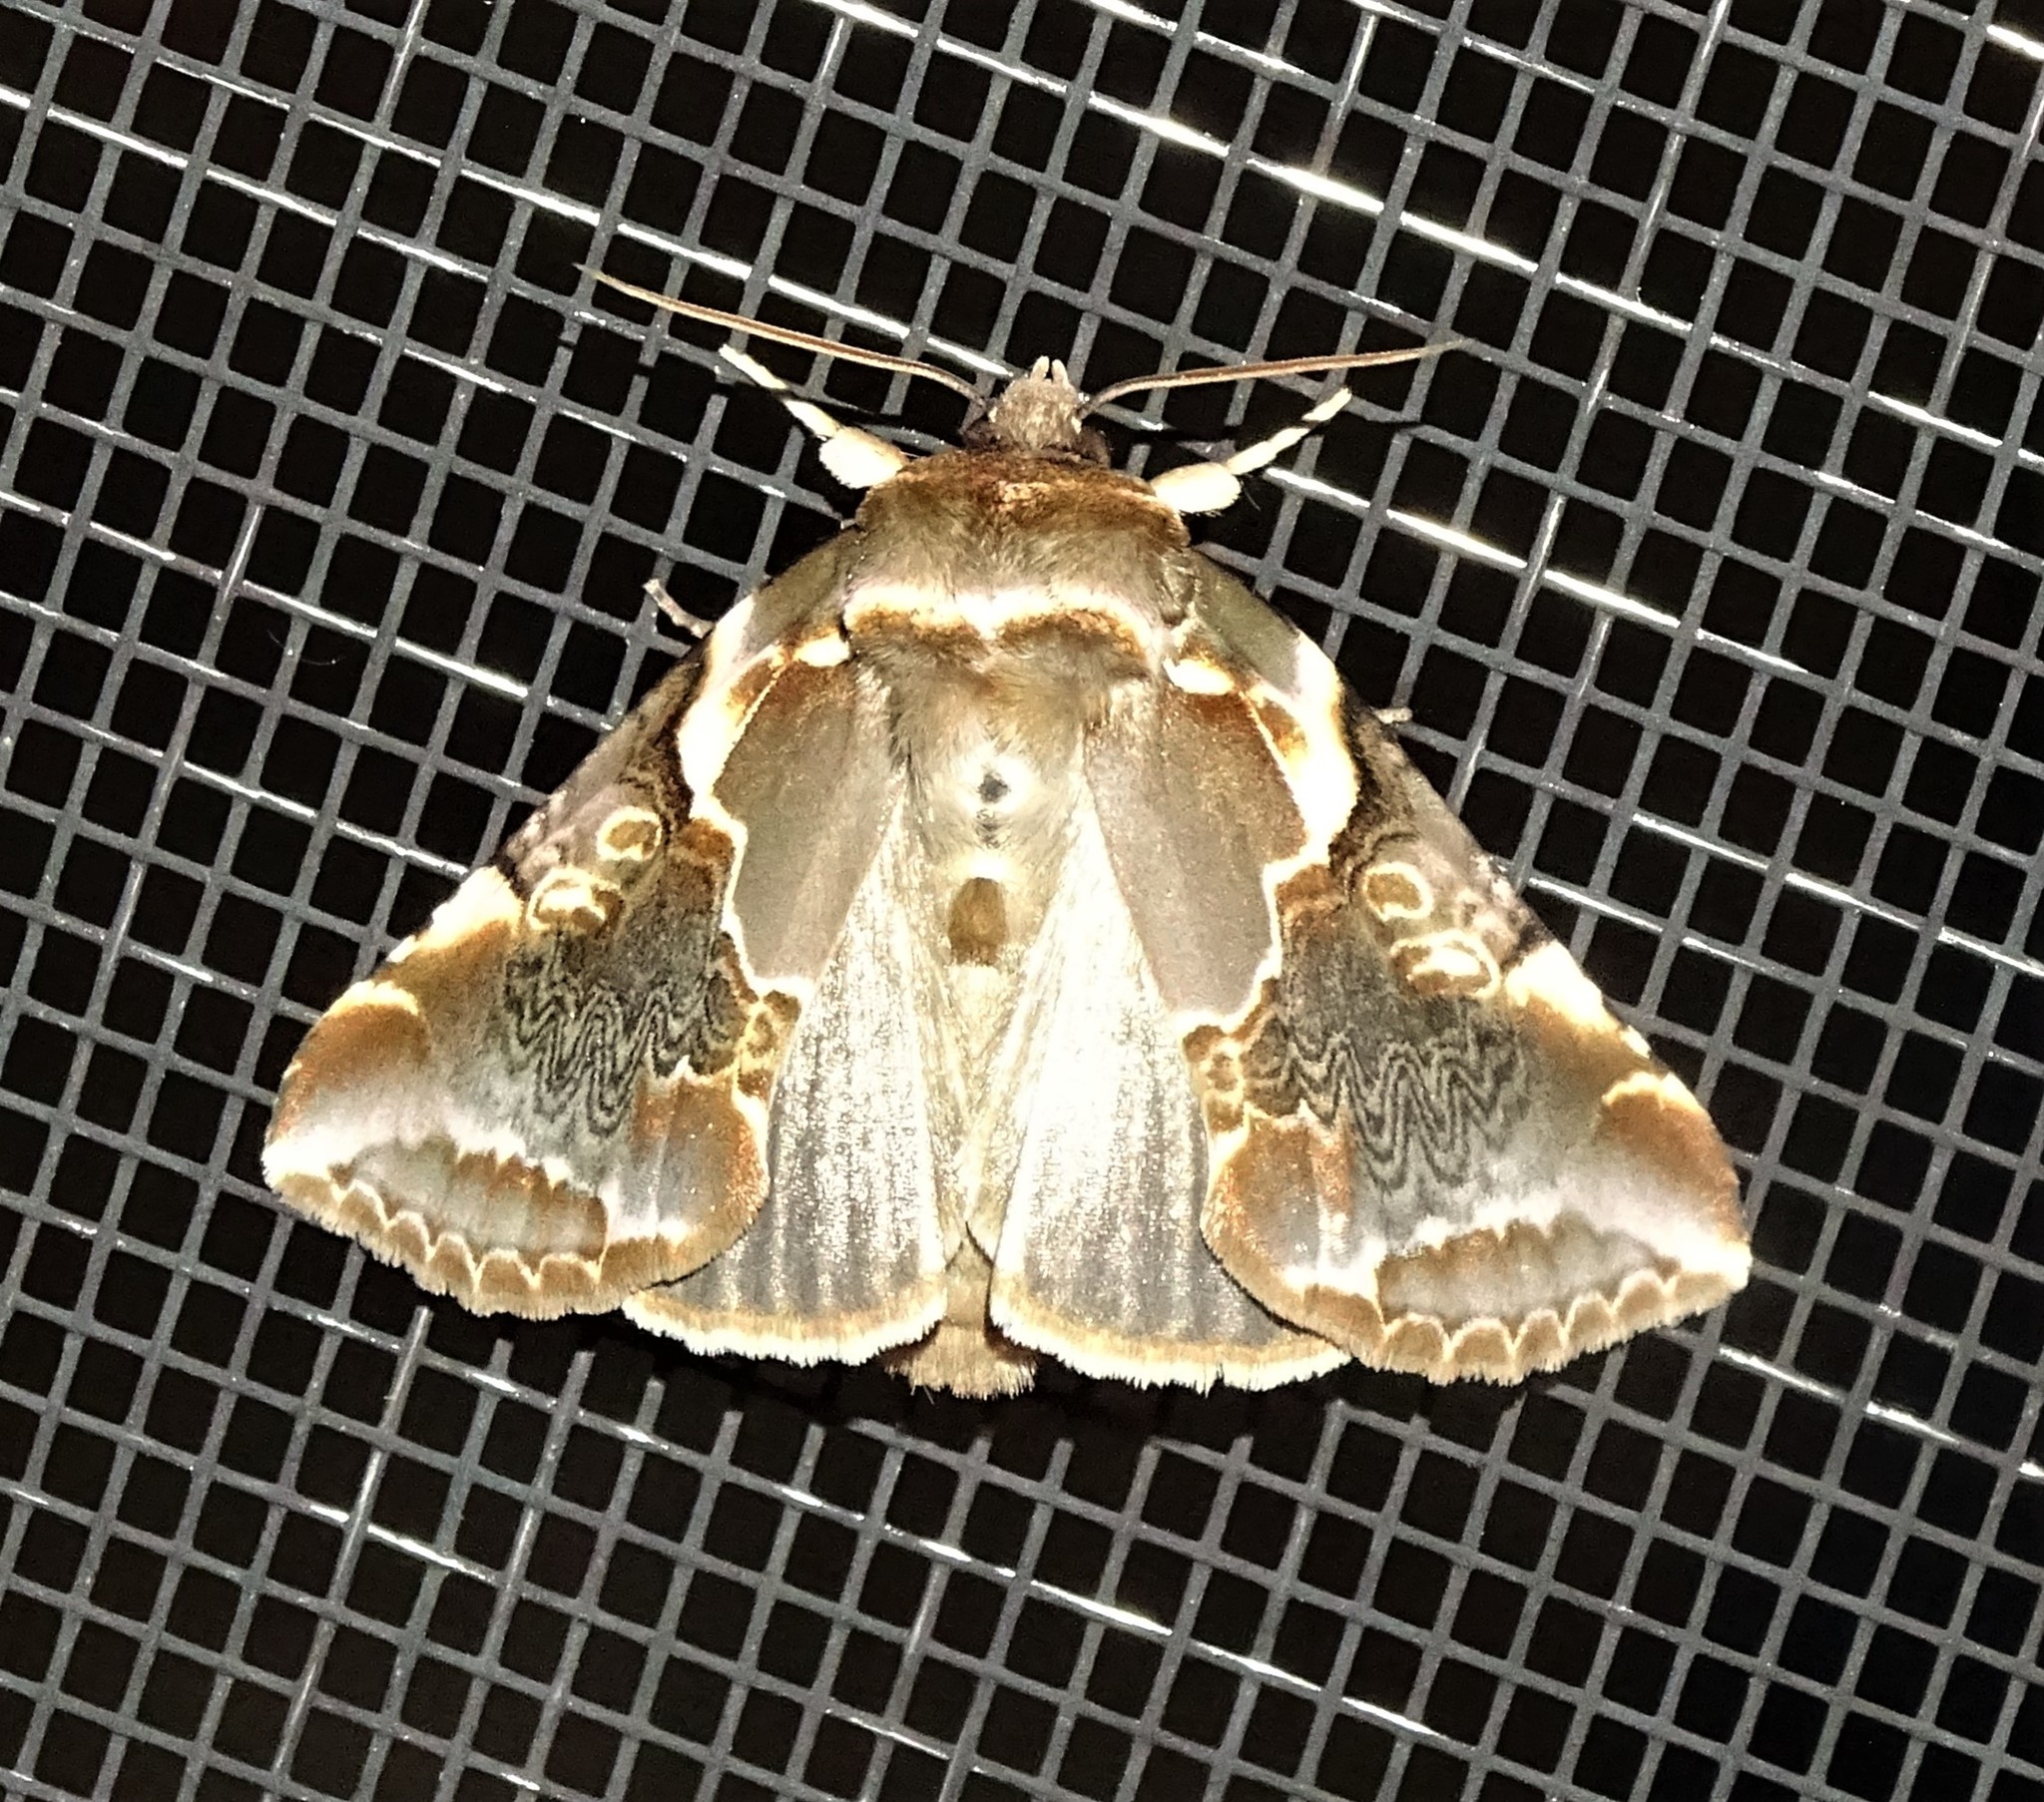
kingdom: Animalia
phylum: Arthropoda
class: Insecta
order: Lepidoptera
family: Drepanidae
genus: Habrosyne
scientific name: Habrosyne gloriosa
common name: Glorious habrosyne moth
